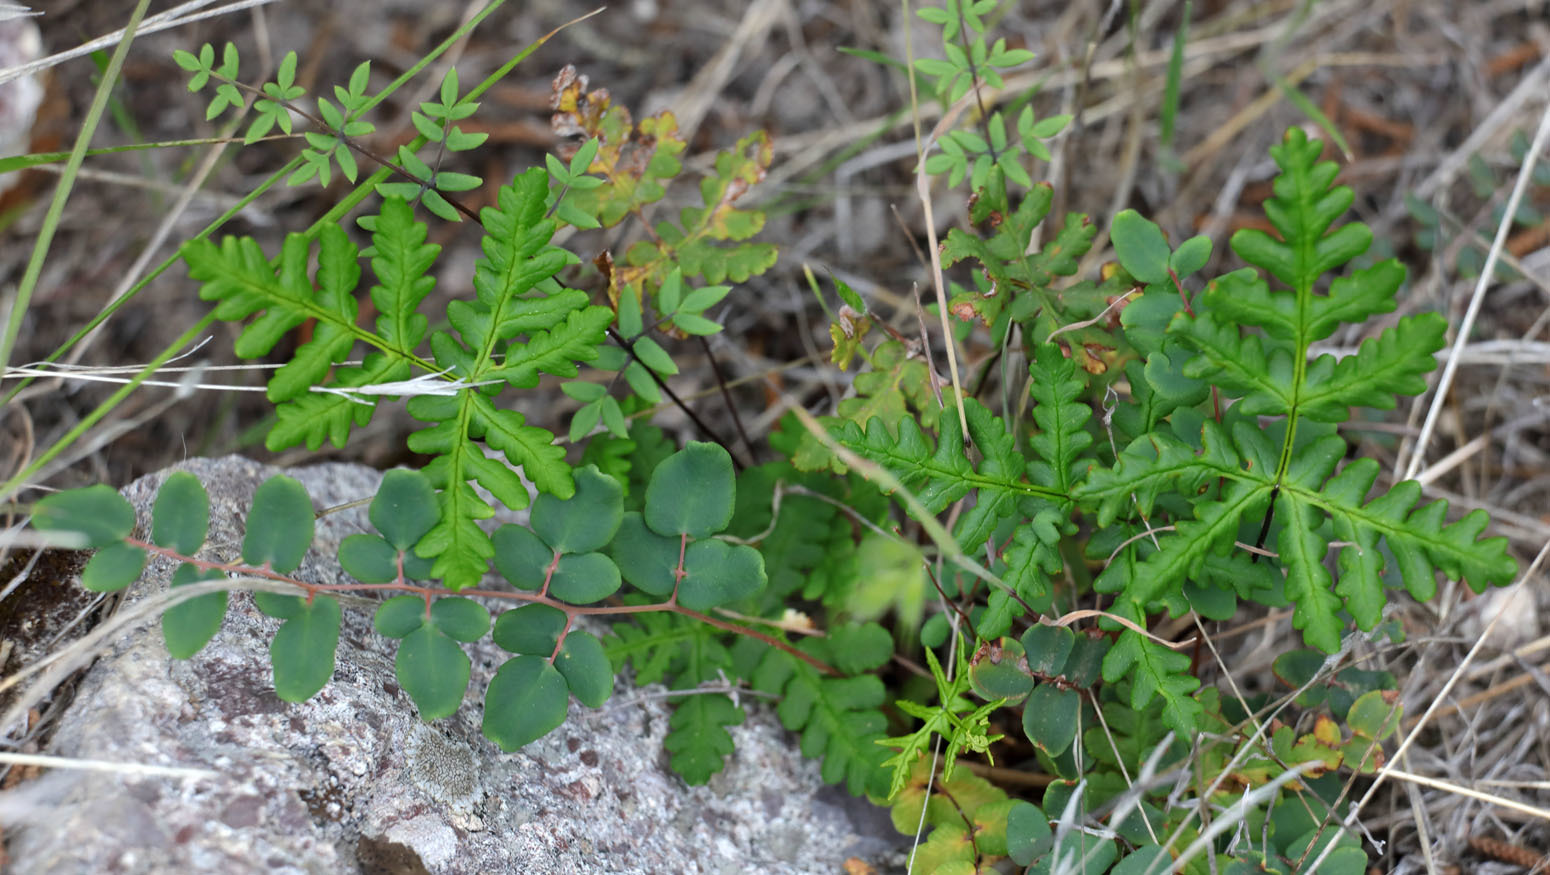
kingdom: Plantae
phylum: Tracheophyta
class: Polypodiopsida
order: Polypodiales
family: Pteridaceae
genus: Pentagramma
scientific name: Pentagramma triangularis
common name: Gold fern
